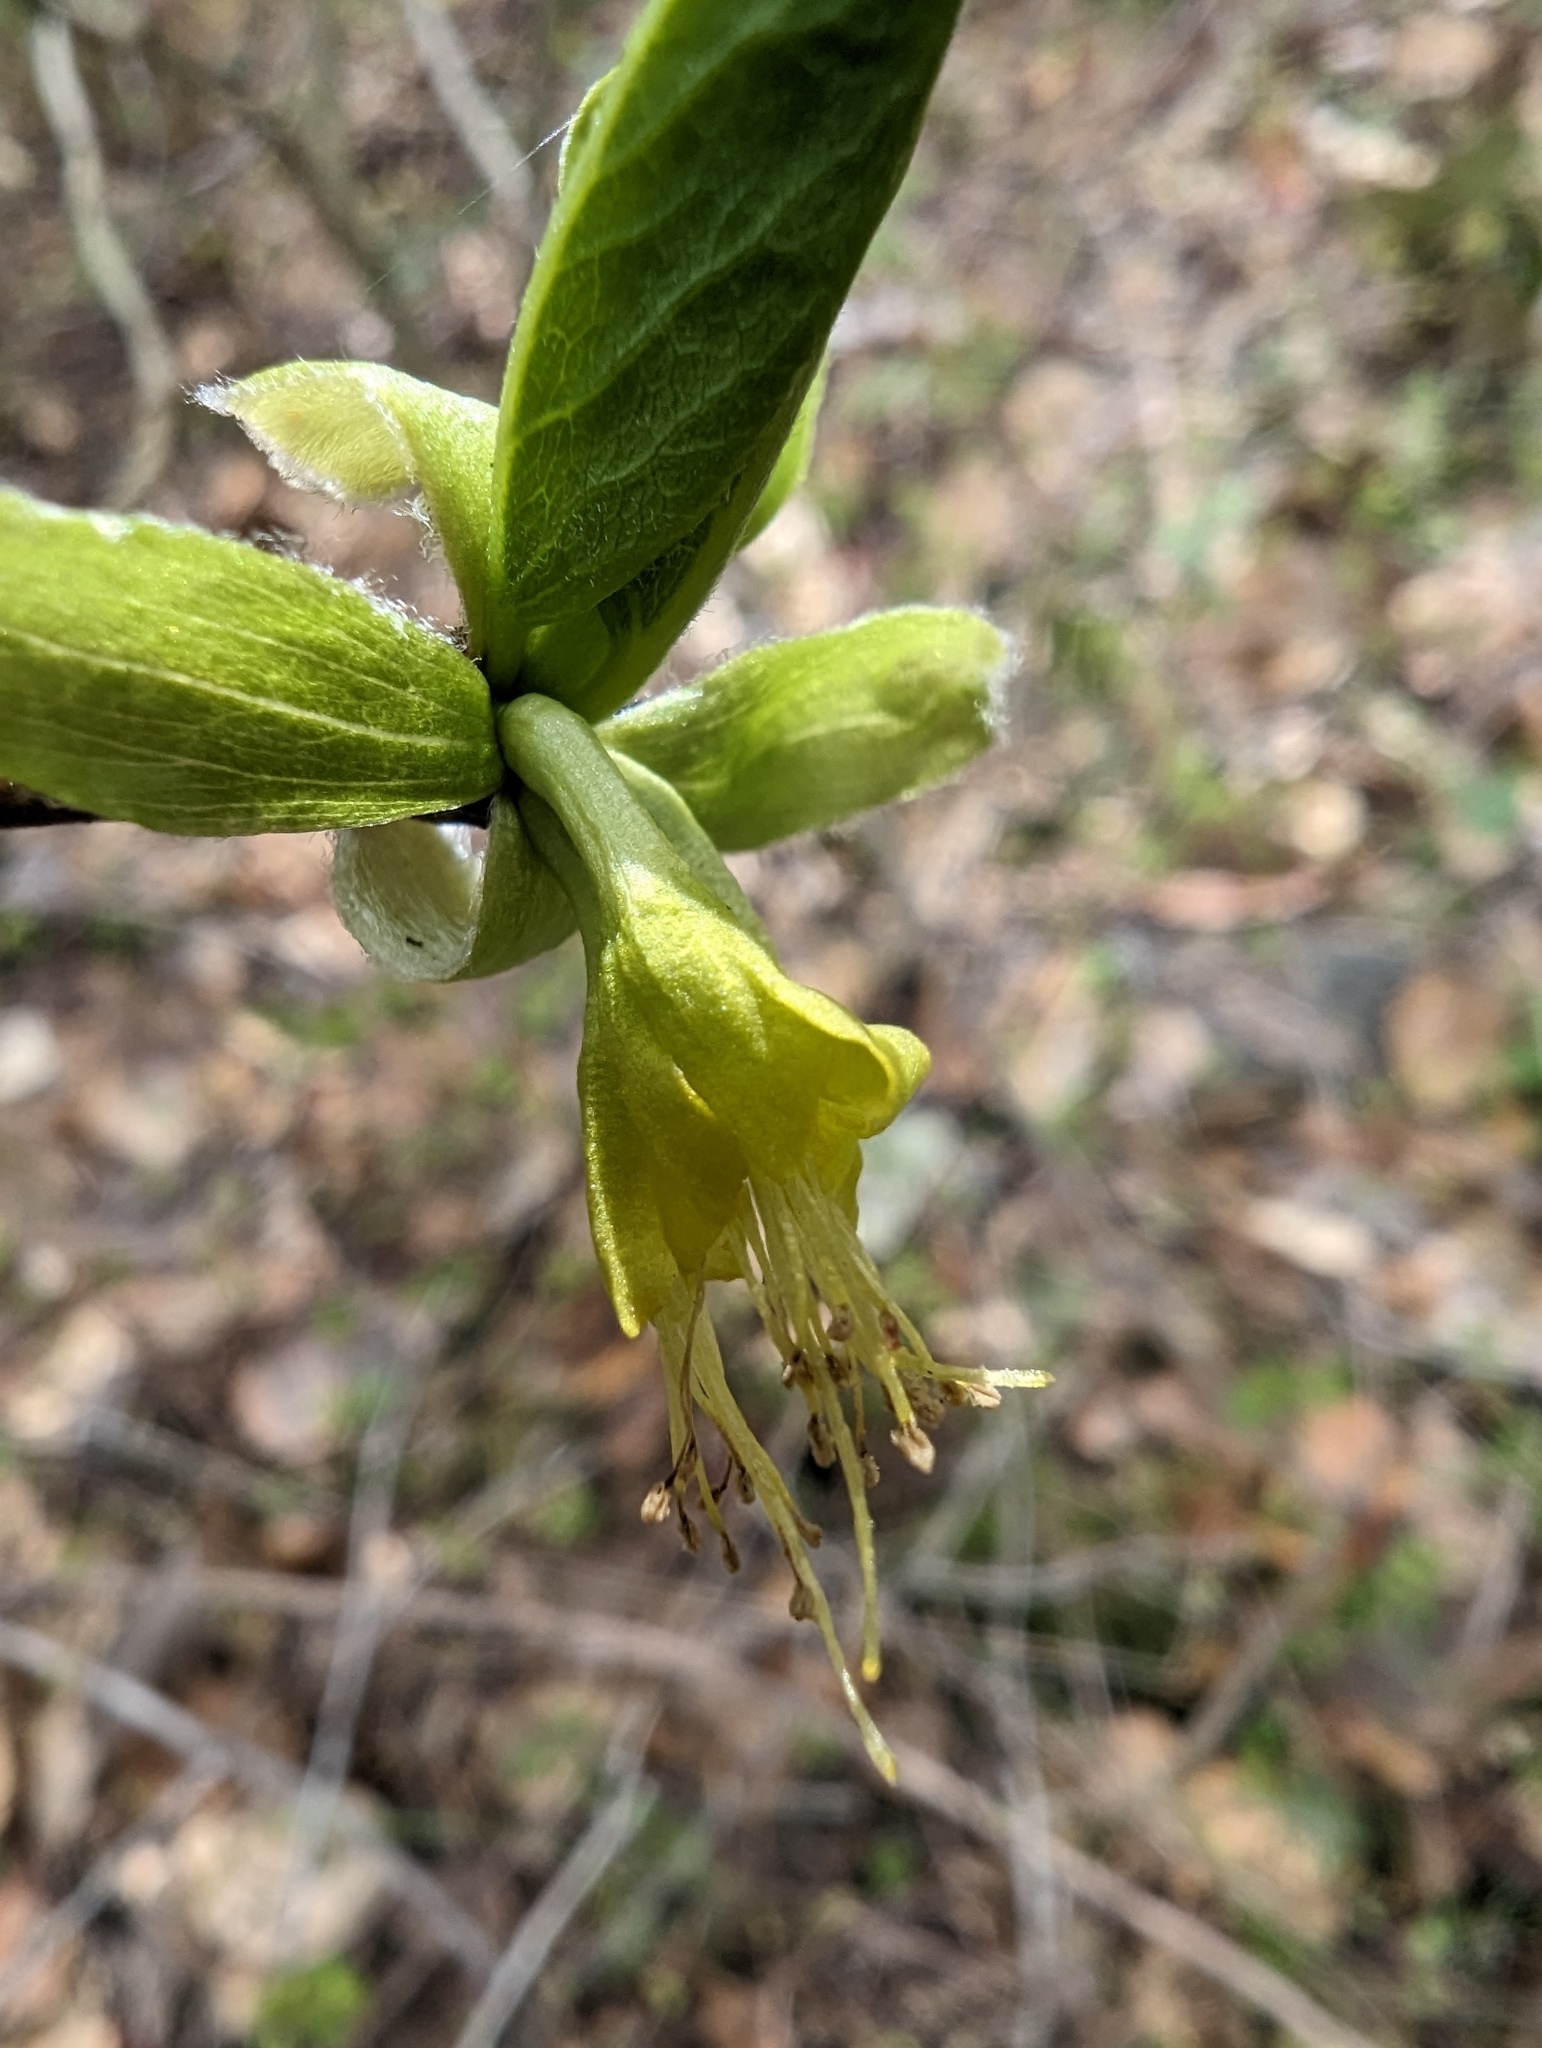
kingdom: Plantae
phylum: Tracheophyta
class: Magnoliopsida
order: Malvales
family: Thymelaeaceae
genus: Dirca
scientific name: Dirca occidentalis
